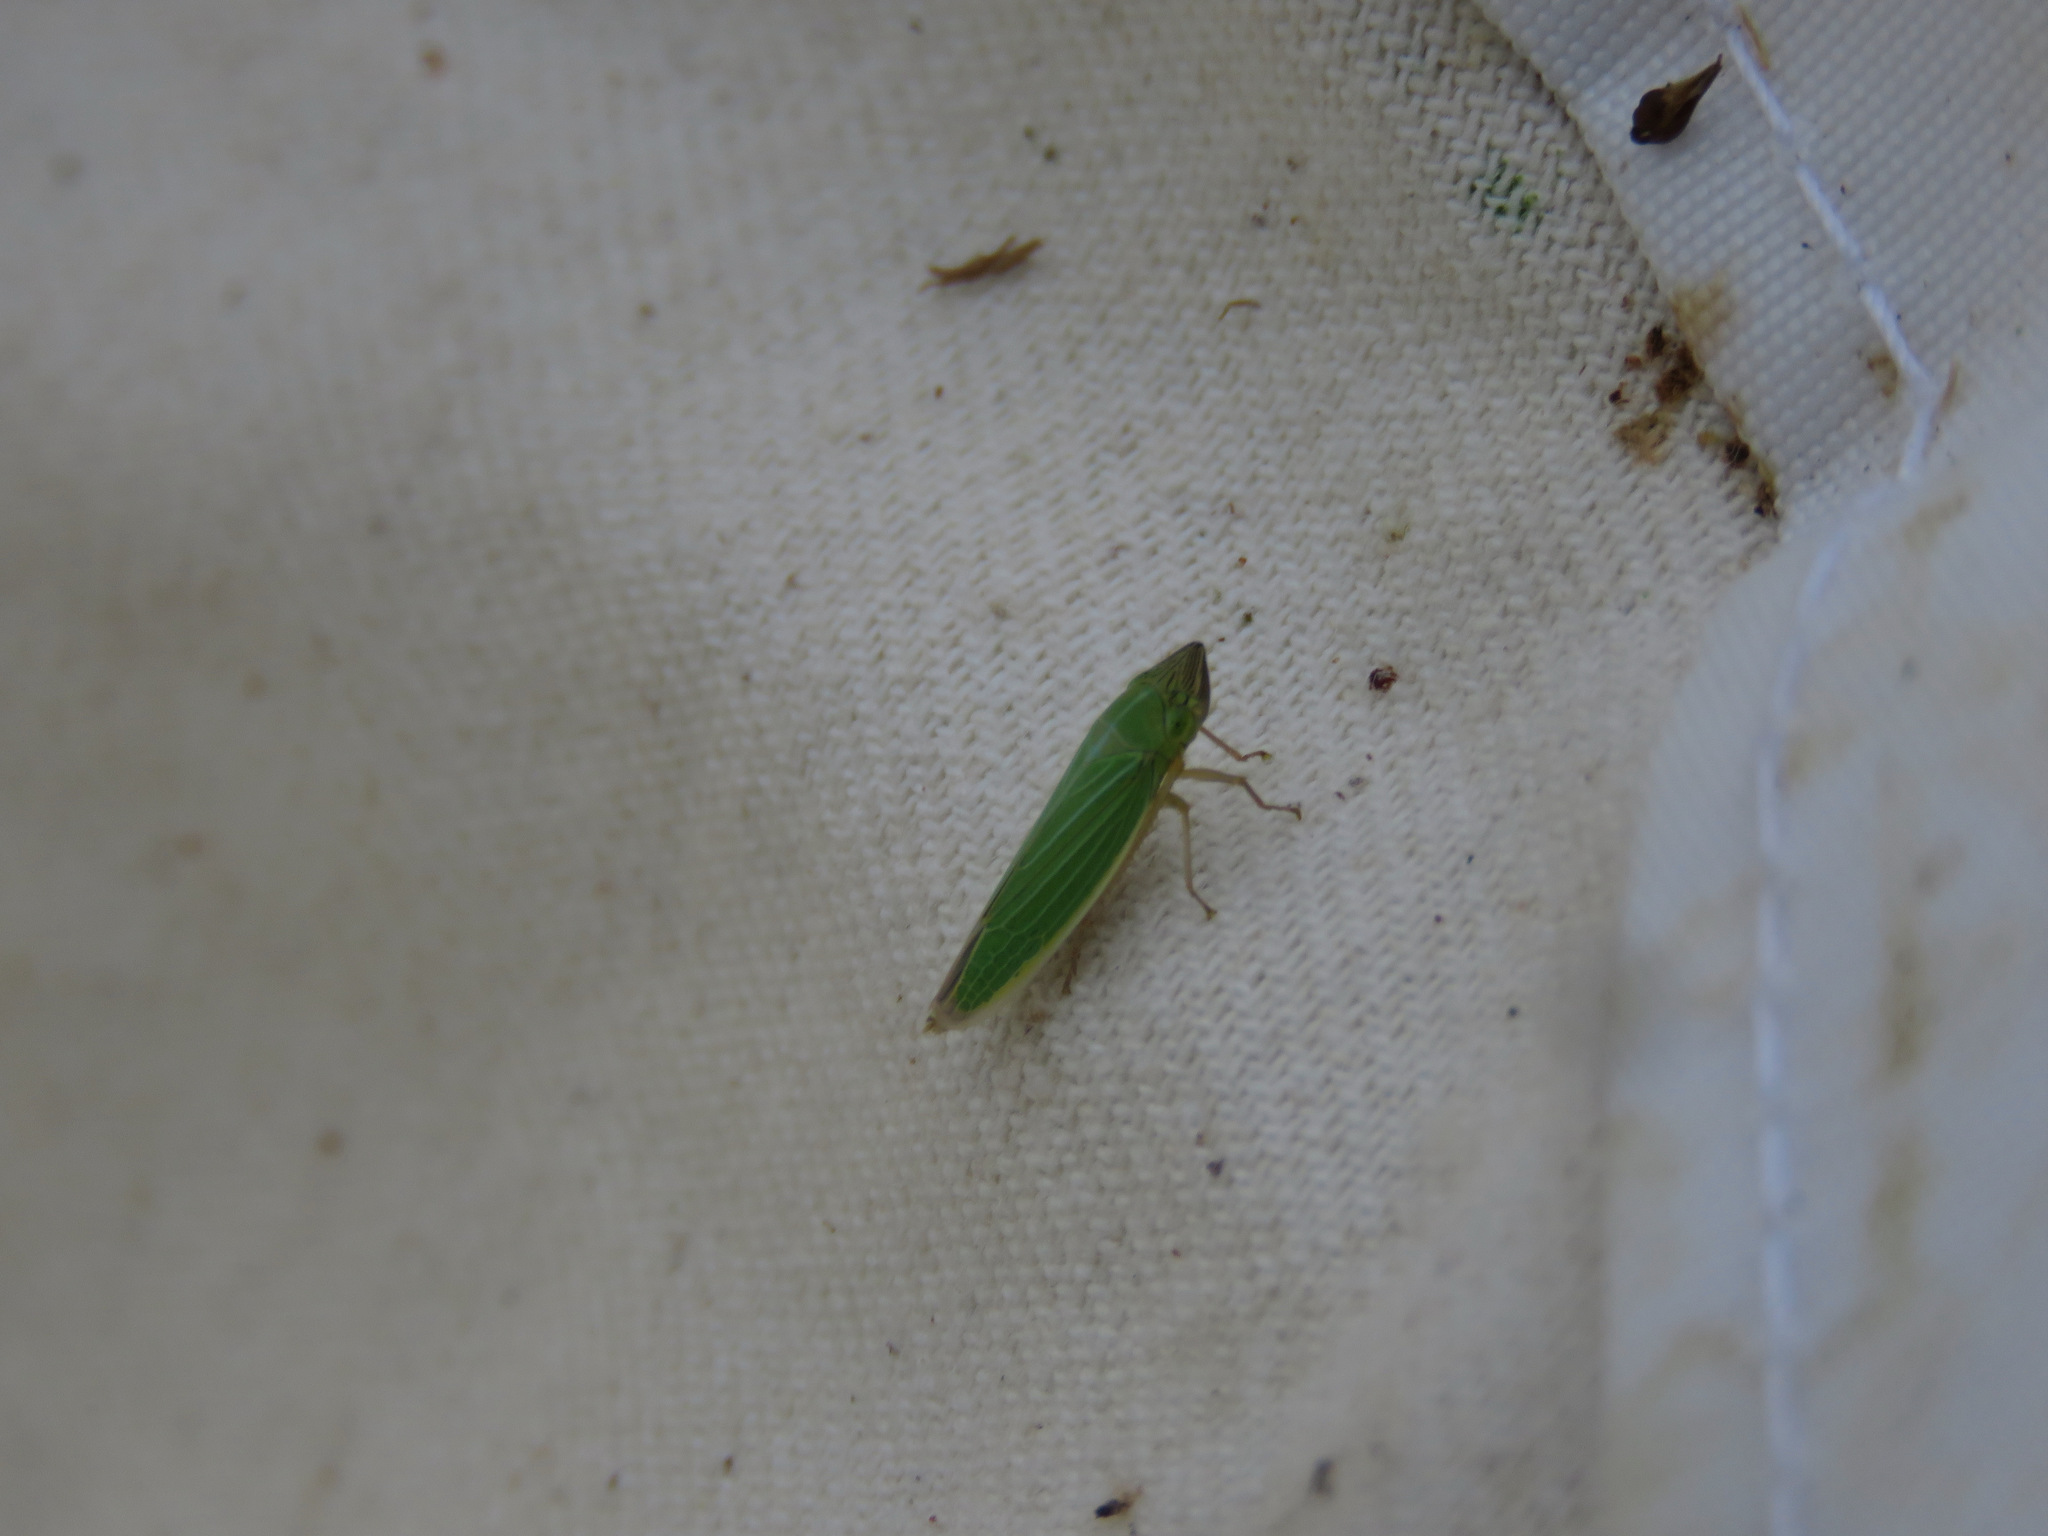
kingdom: Animalia
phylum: Arthropoda
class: Insecta
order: Hemiptera
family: Cicadellidae
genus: Draeculacephala
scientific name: Draeculacephala angulifera
